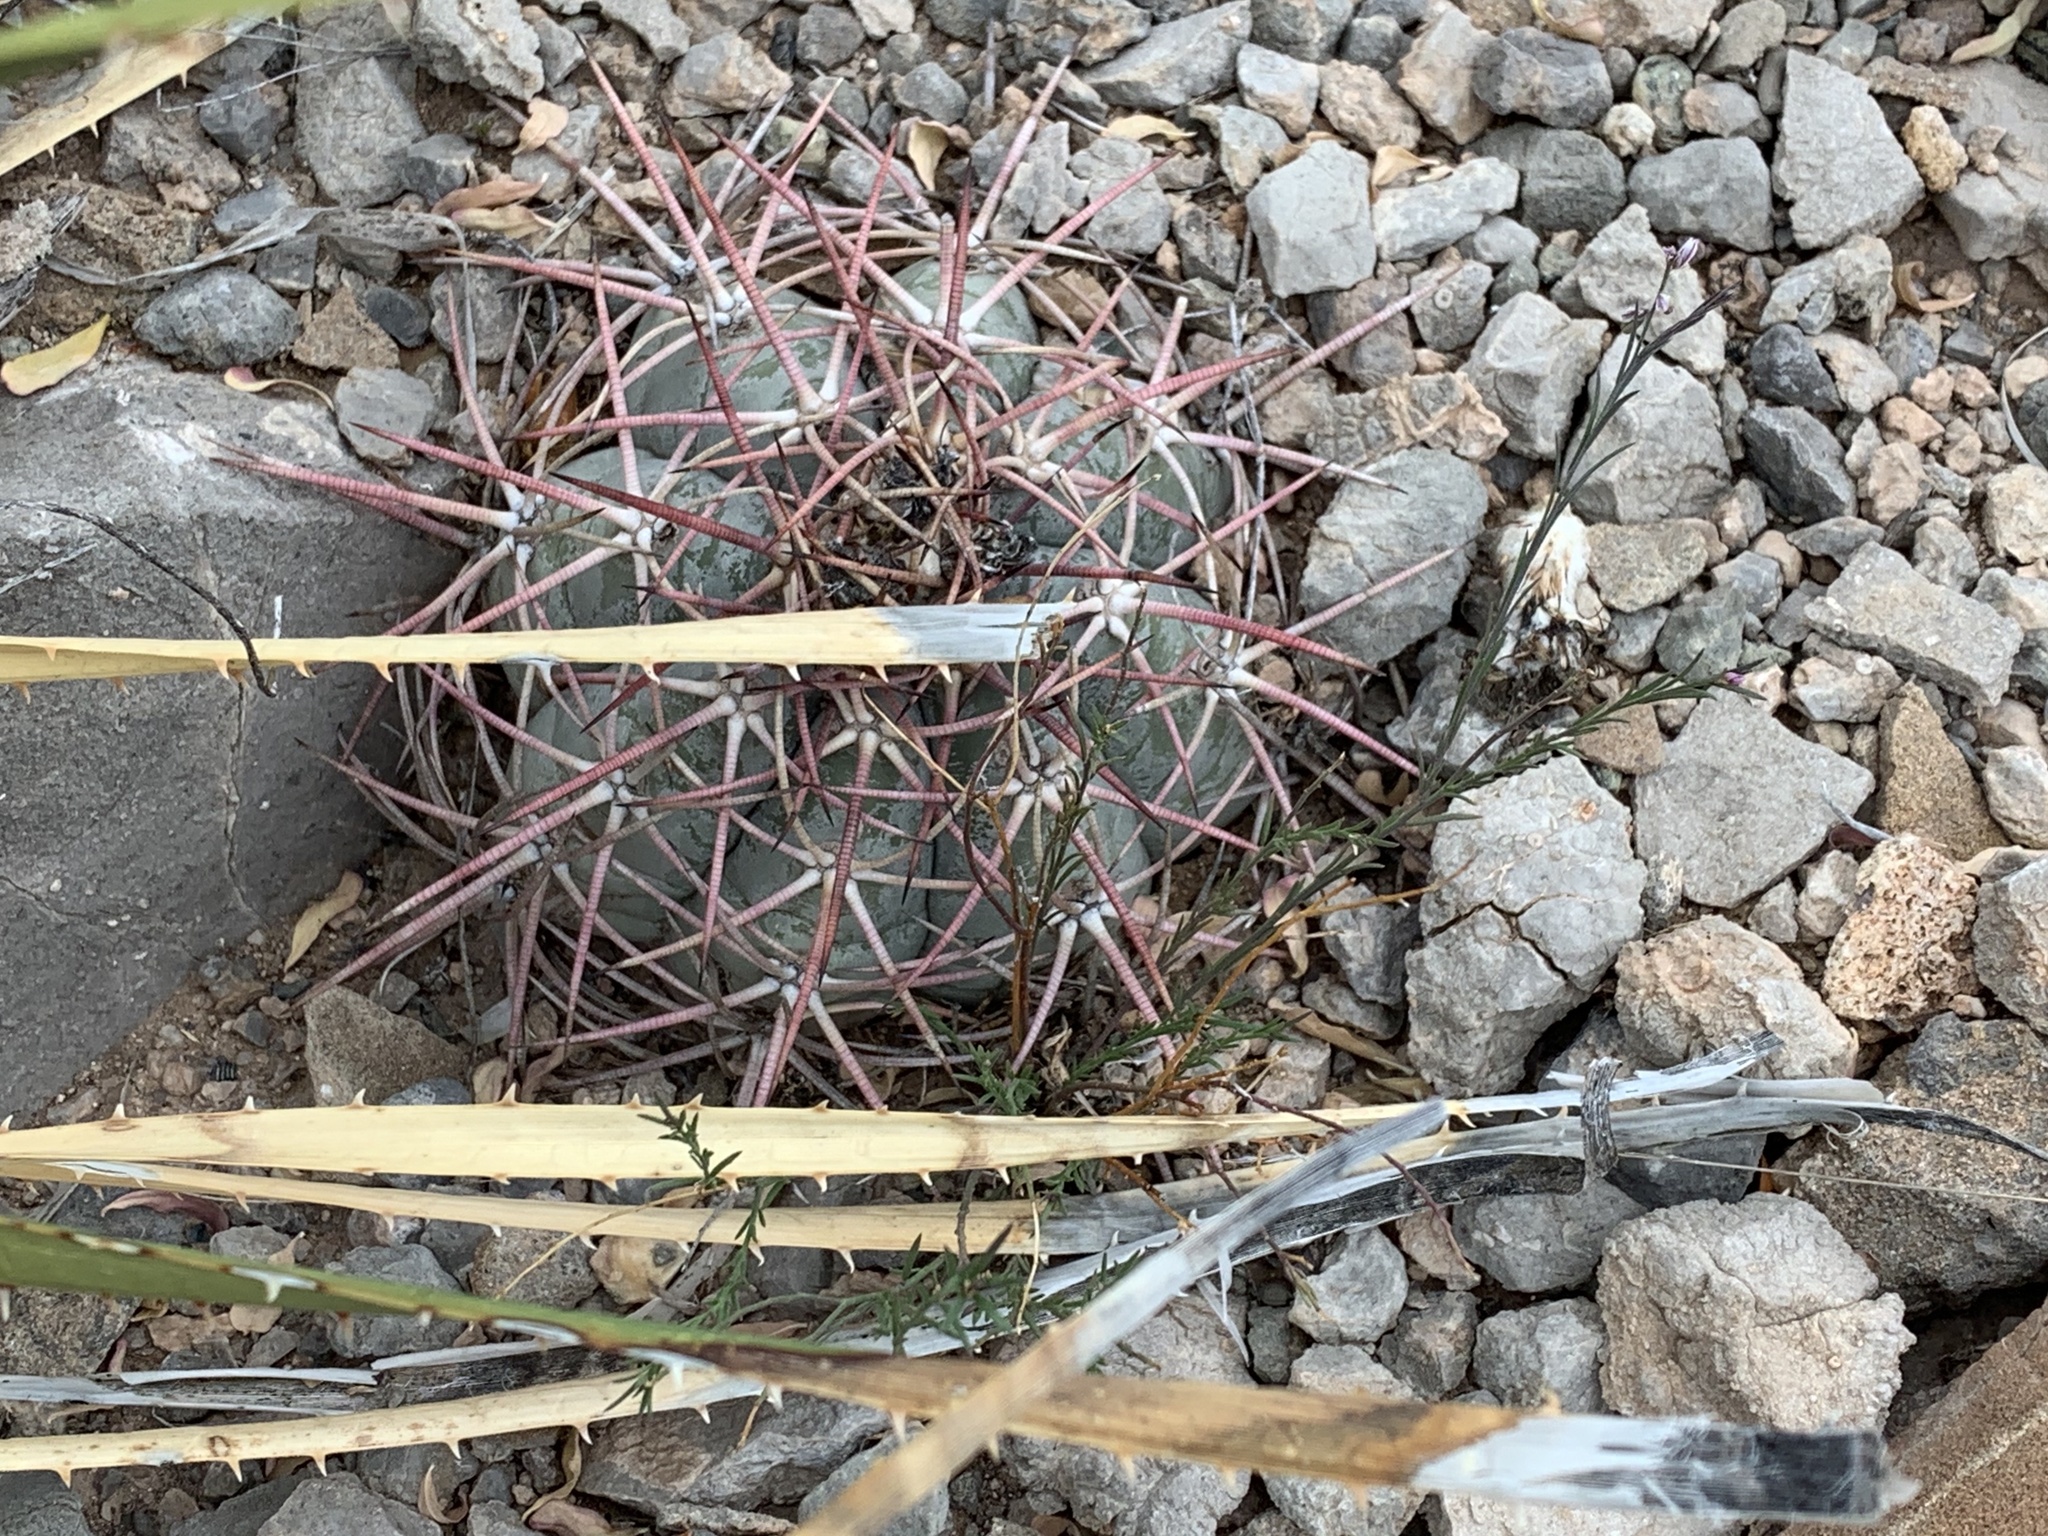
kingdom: Plantae
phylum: Tracheophyta
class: Magnoliopsida
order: Caryophyllales
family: Cactaceae
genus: Echinocactus
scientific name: Echinocactus horizonthalonius
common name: Devilshead
